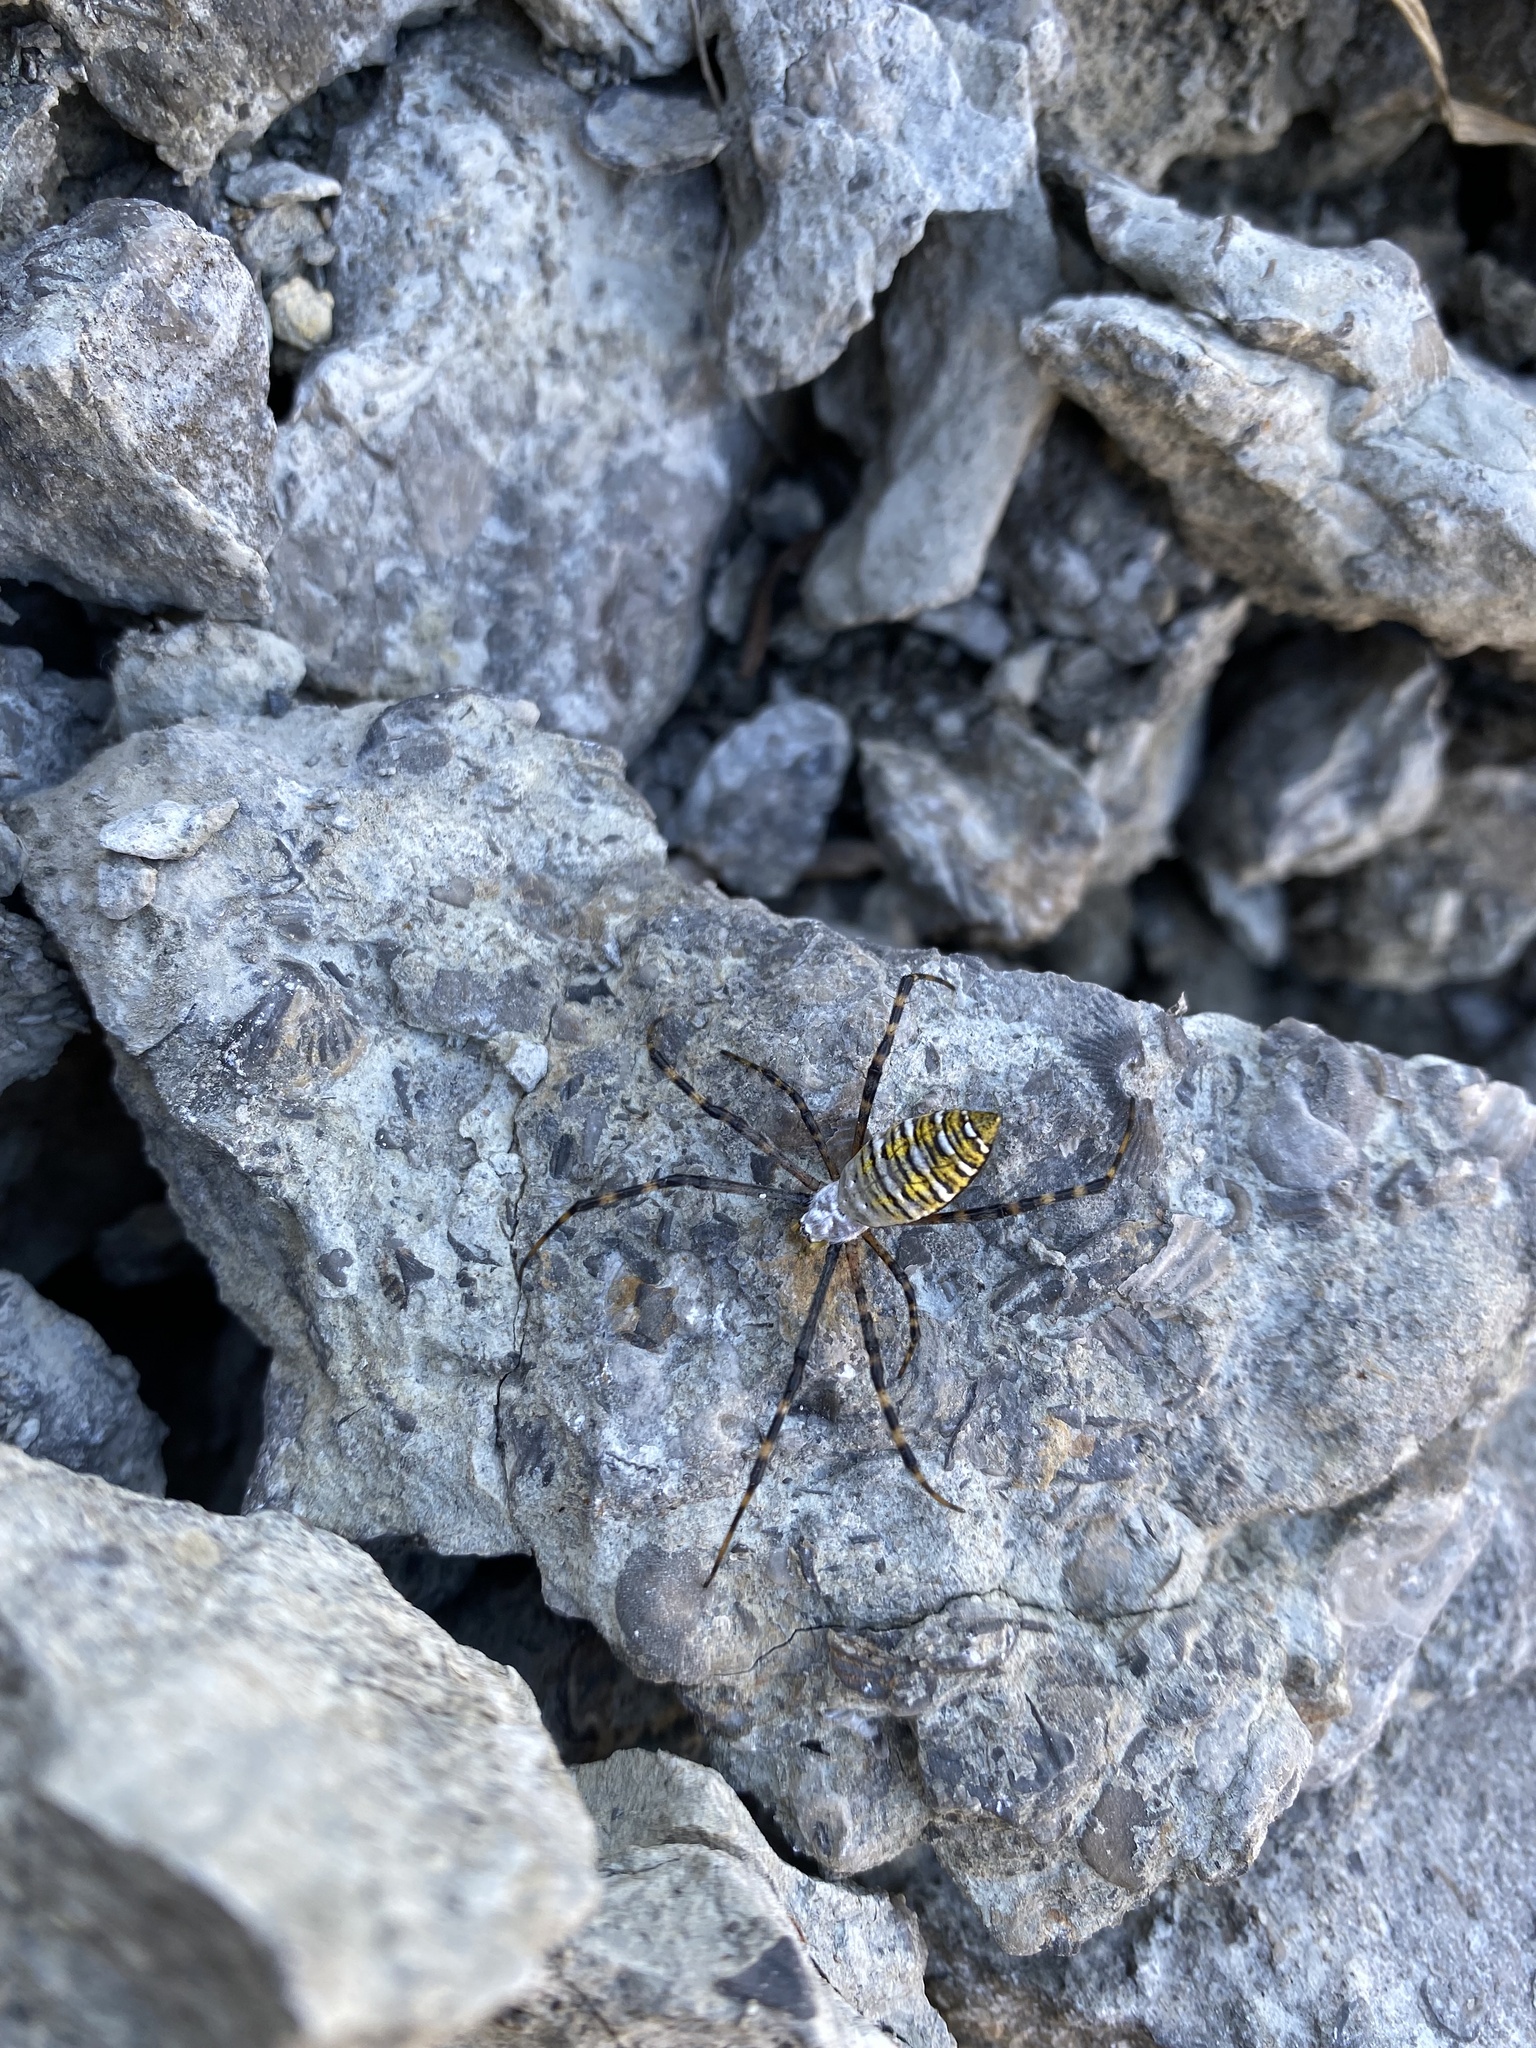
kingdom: Animalia
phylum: Arthropoda
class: Arachnida
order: Araneae
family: Araneidae
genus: Argiope
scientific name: Argiope trifasciata
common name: Banded garden spider
